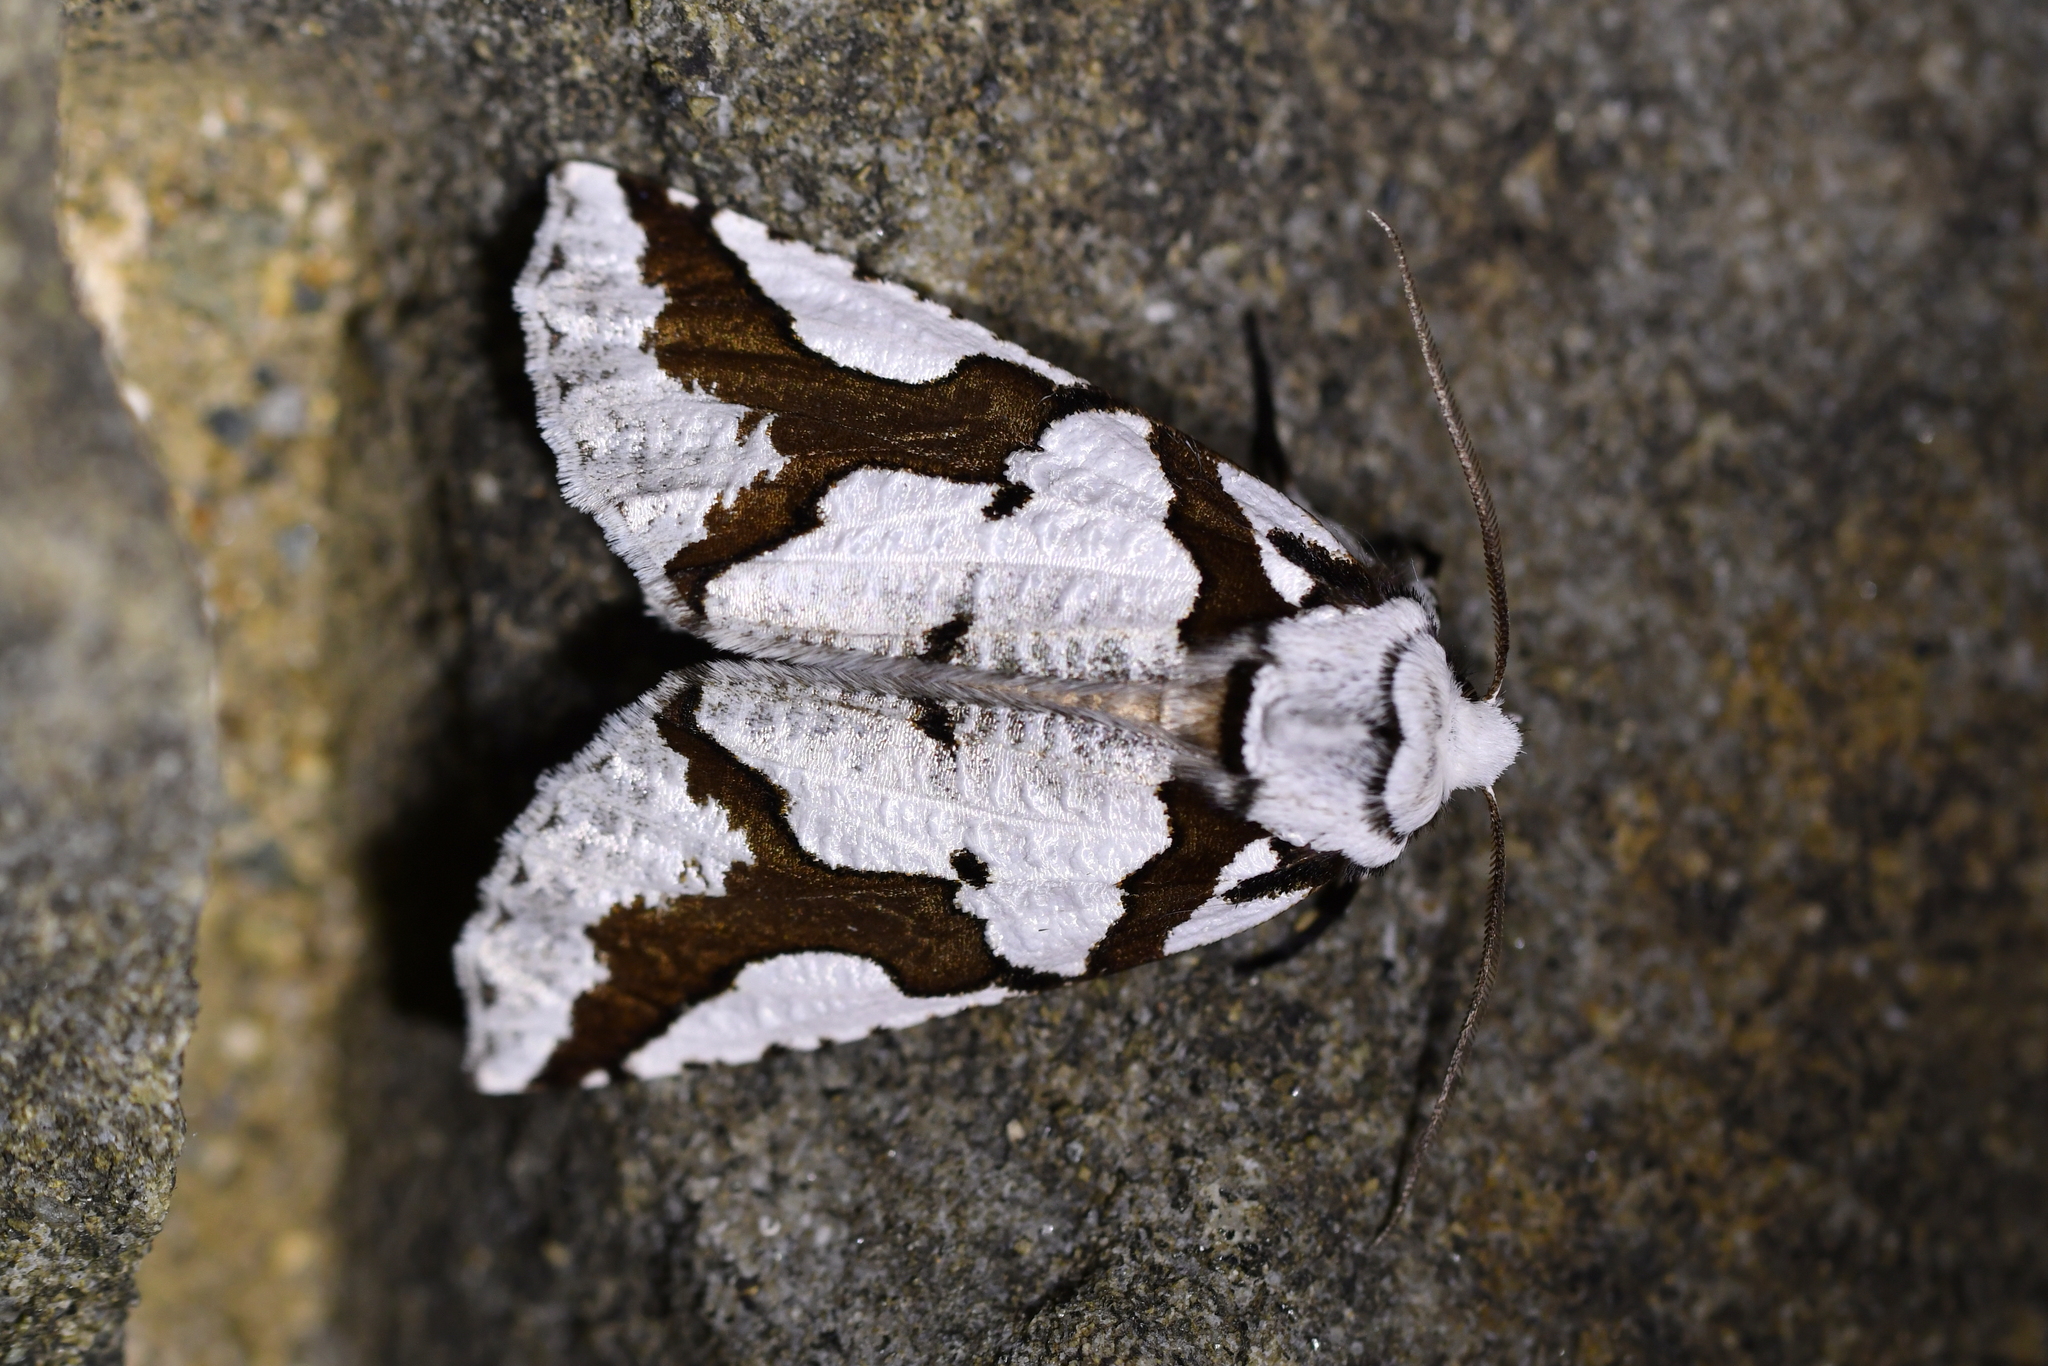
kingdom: Animalia
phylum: Arthropoda
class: Insecta
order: Lepidoptera
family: Geometridae
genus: Declana
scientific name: Declana
